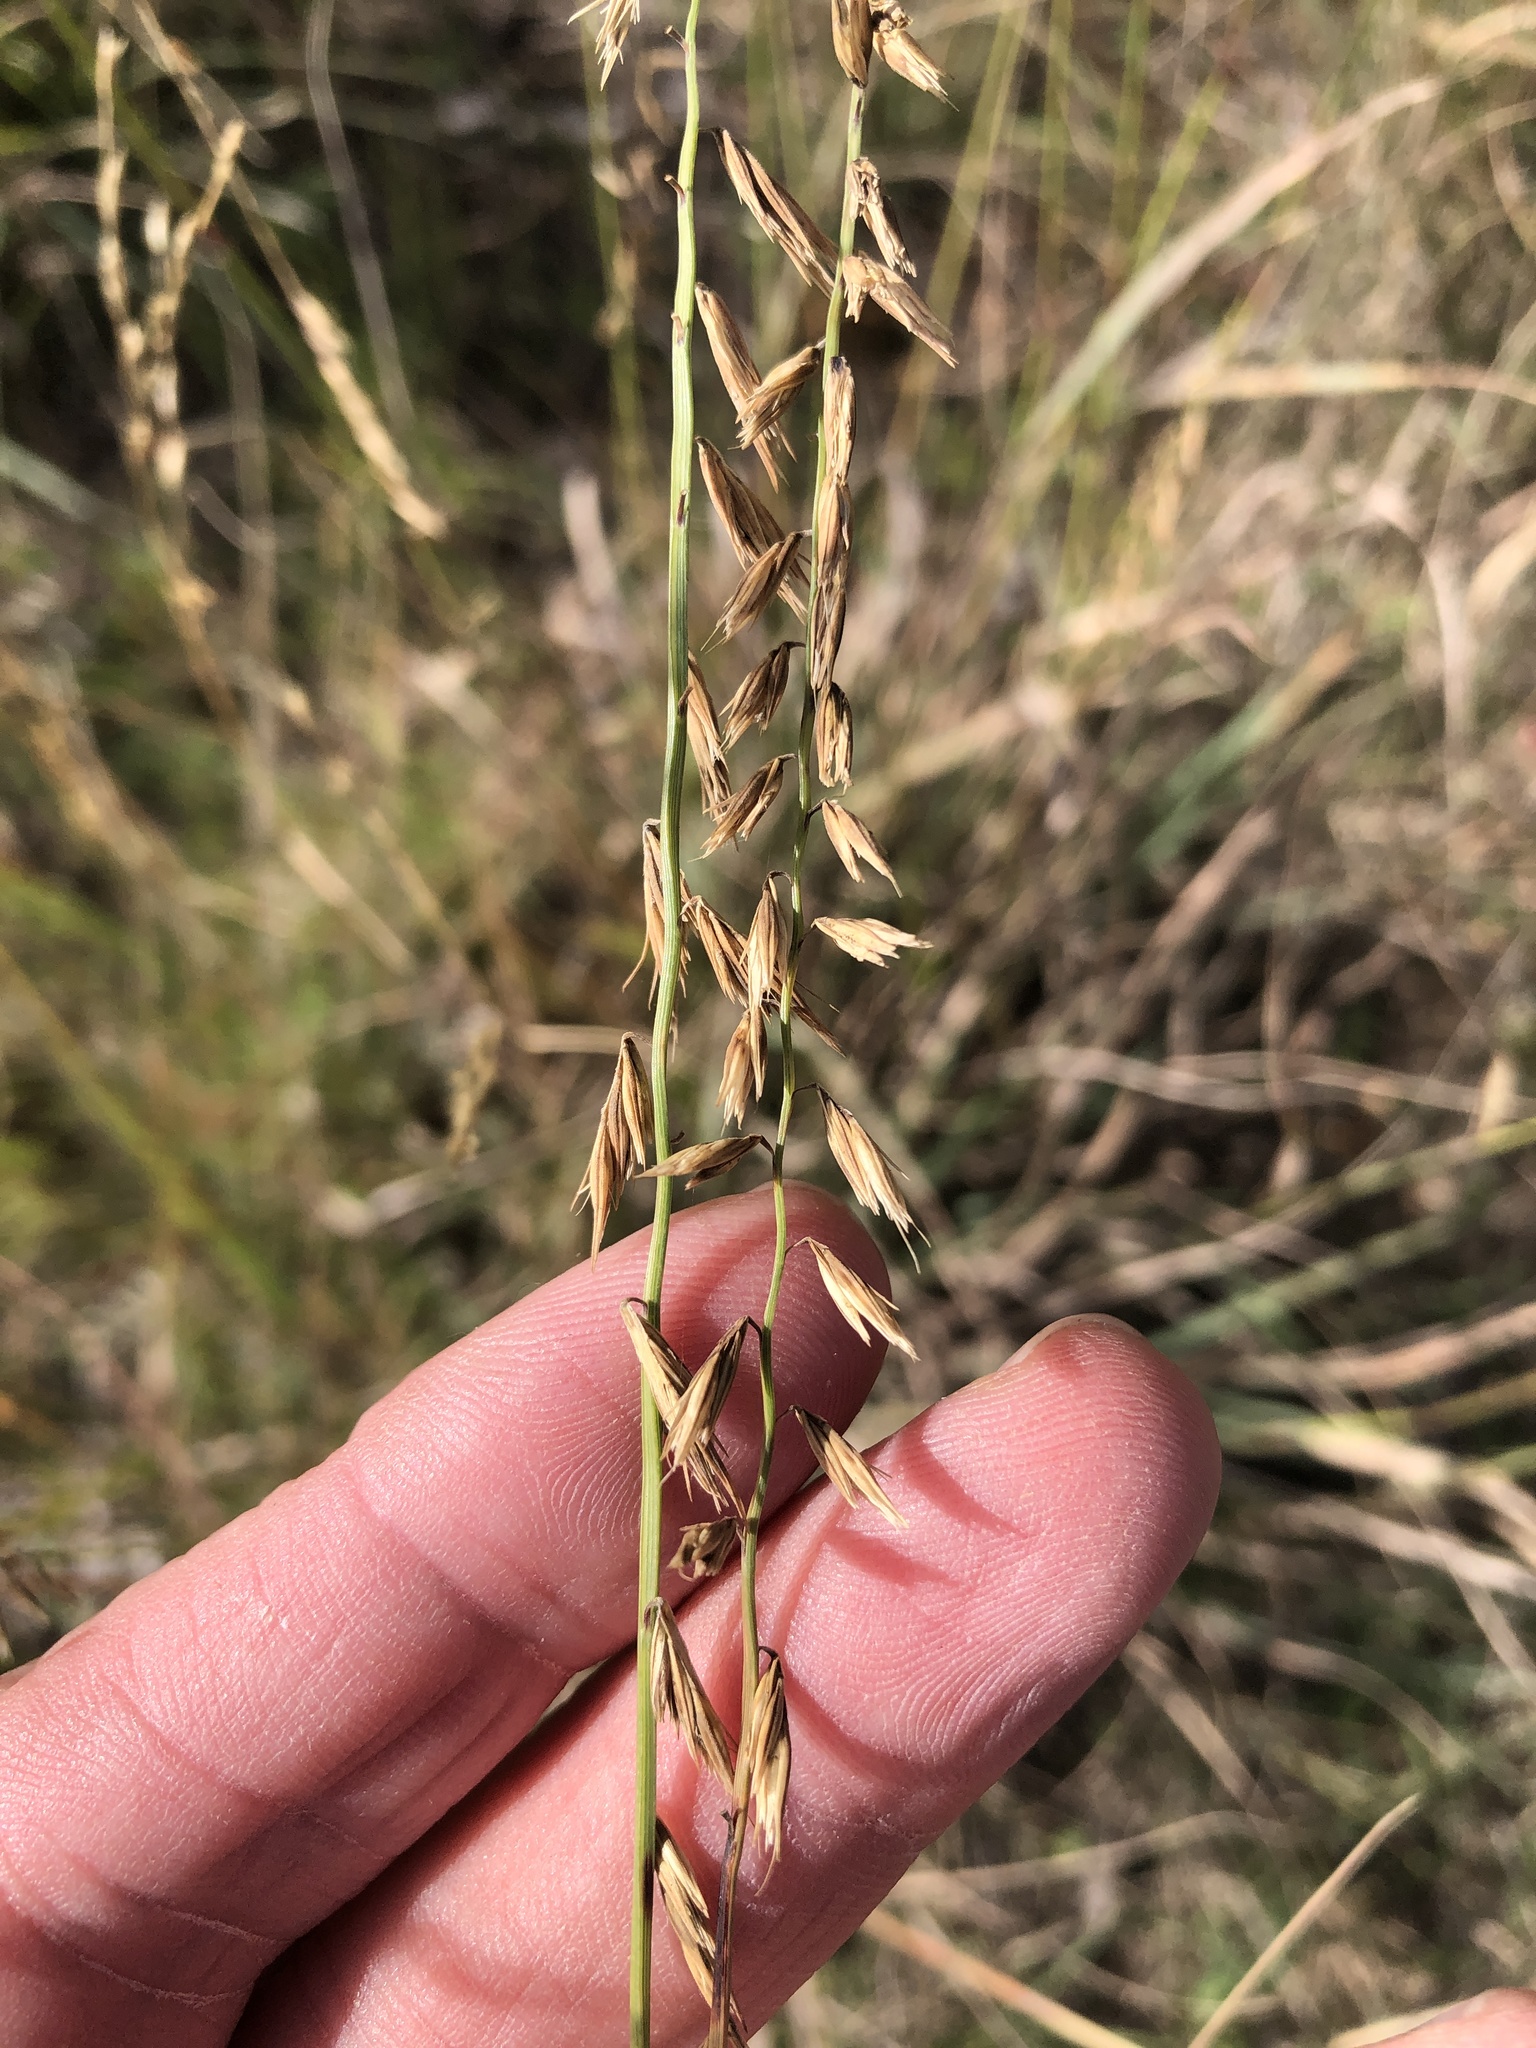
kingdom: Plantae
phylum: Tracheophyta
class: Liliopsida
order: Poales
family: Poaceae
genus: Bouteloua
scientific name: Bouteloua curtipendula
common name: Side-oats grama
